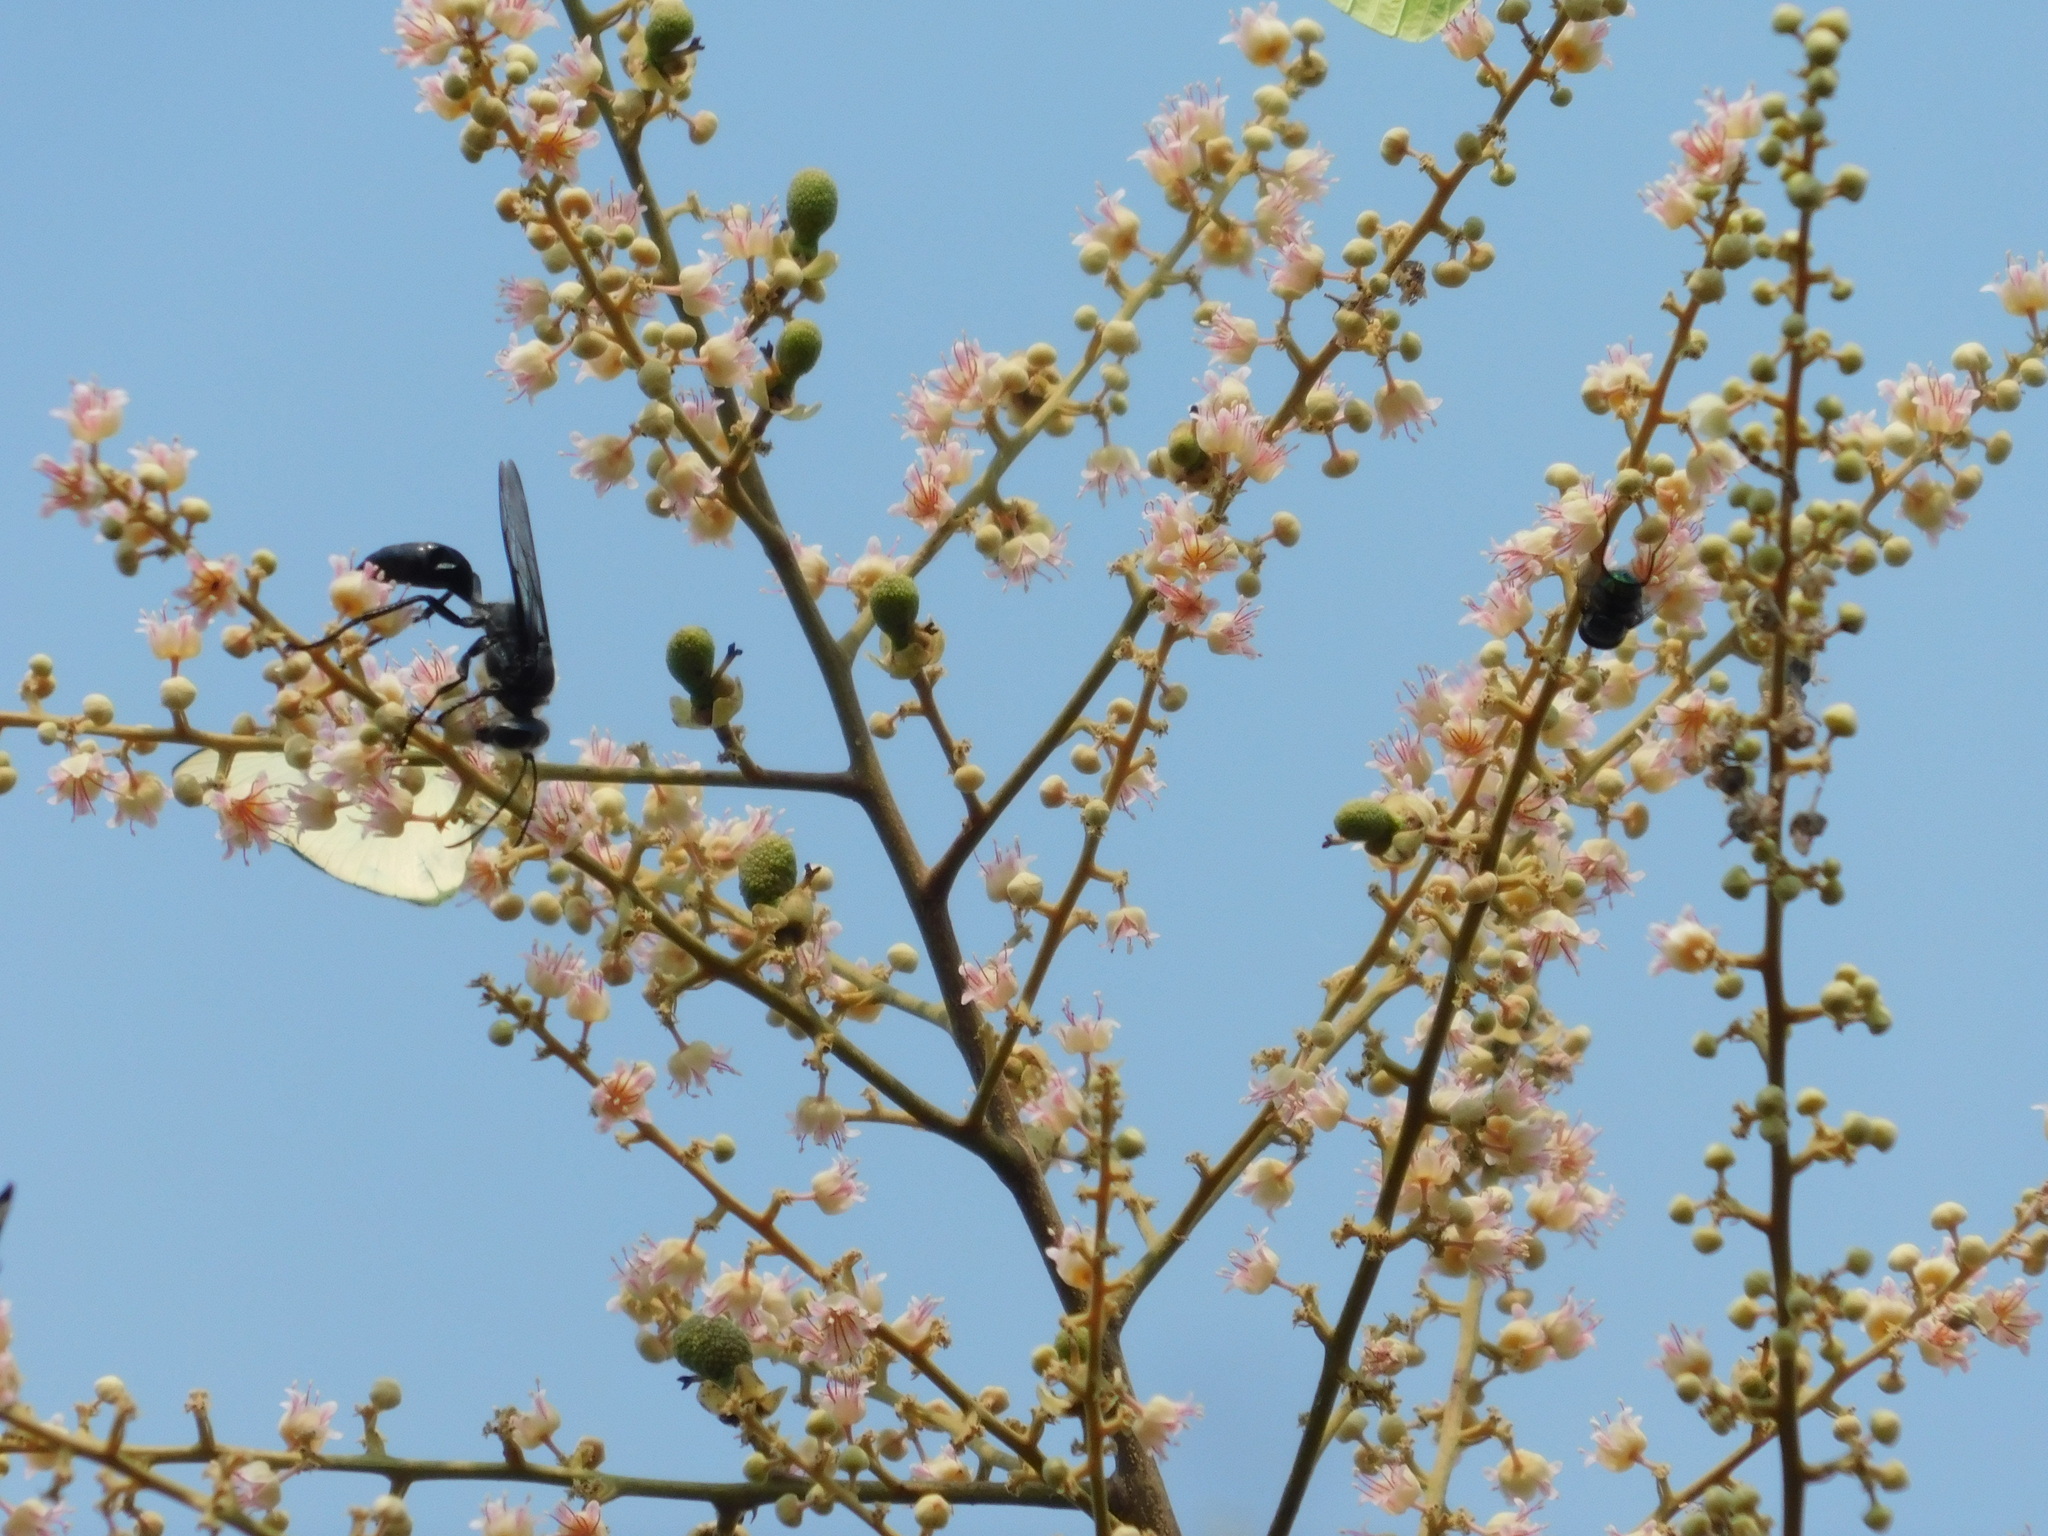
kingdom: Animalia
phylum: Arthropoda
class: Insecta
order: Hymenoptera
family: Sphecidae
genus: Sphex
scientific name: Sphex argentatus
